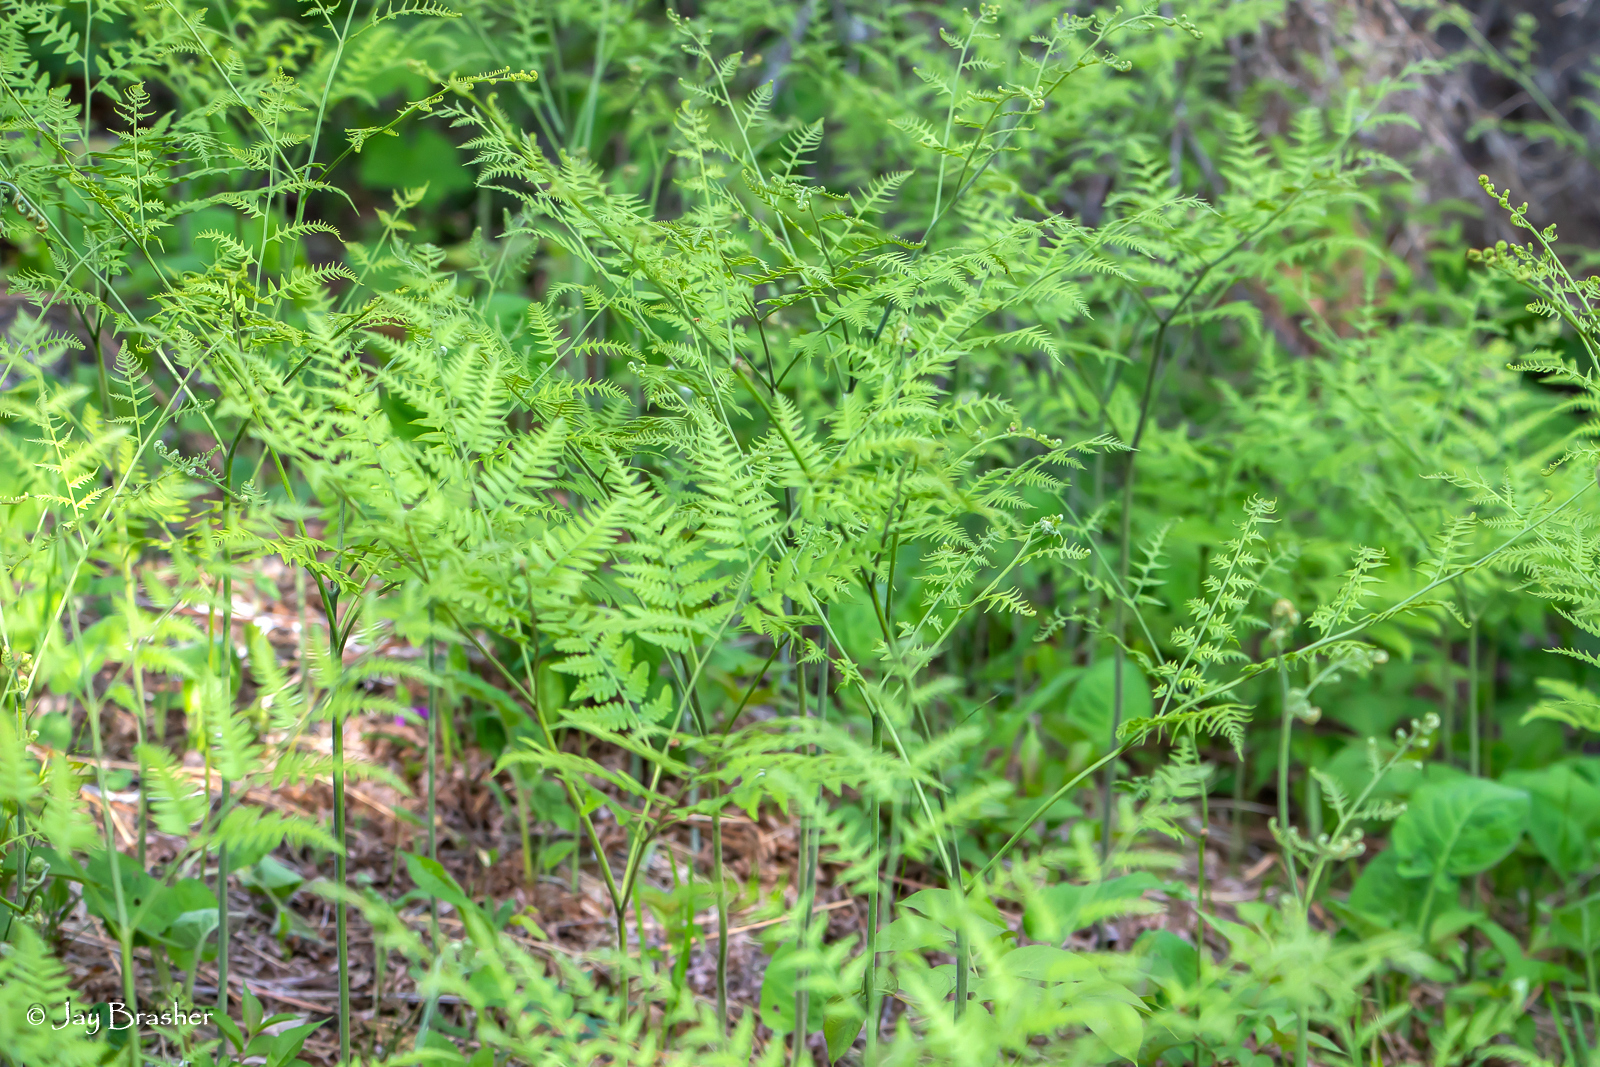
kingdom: Plantae
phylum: Tracheophyta
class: Polypodiopsida
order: Polypodiales
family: Dennstaedtiaceae
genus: Pteridium
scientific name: Pteridium aquilinum
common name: Bracken
